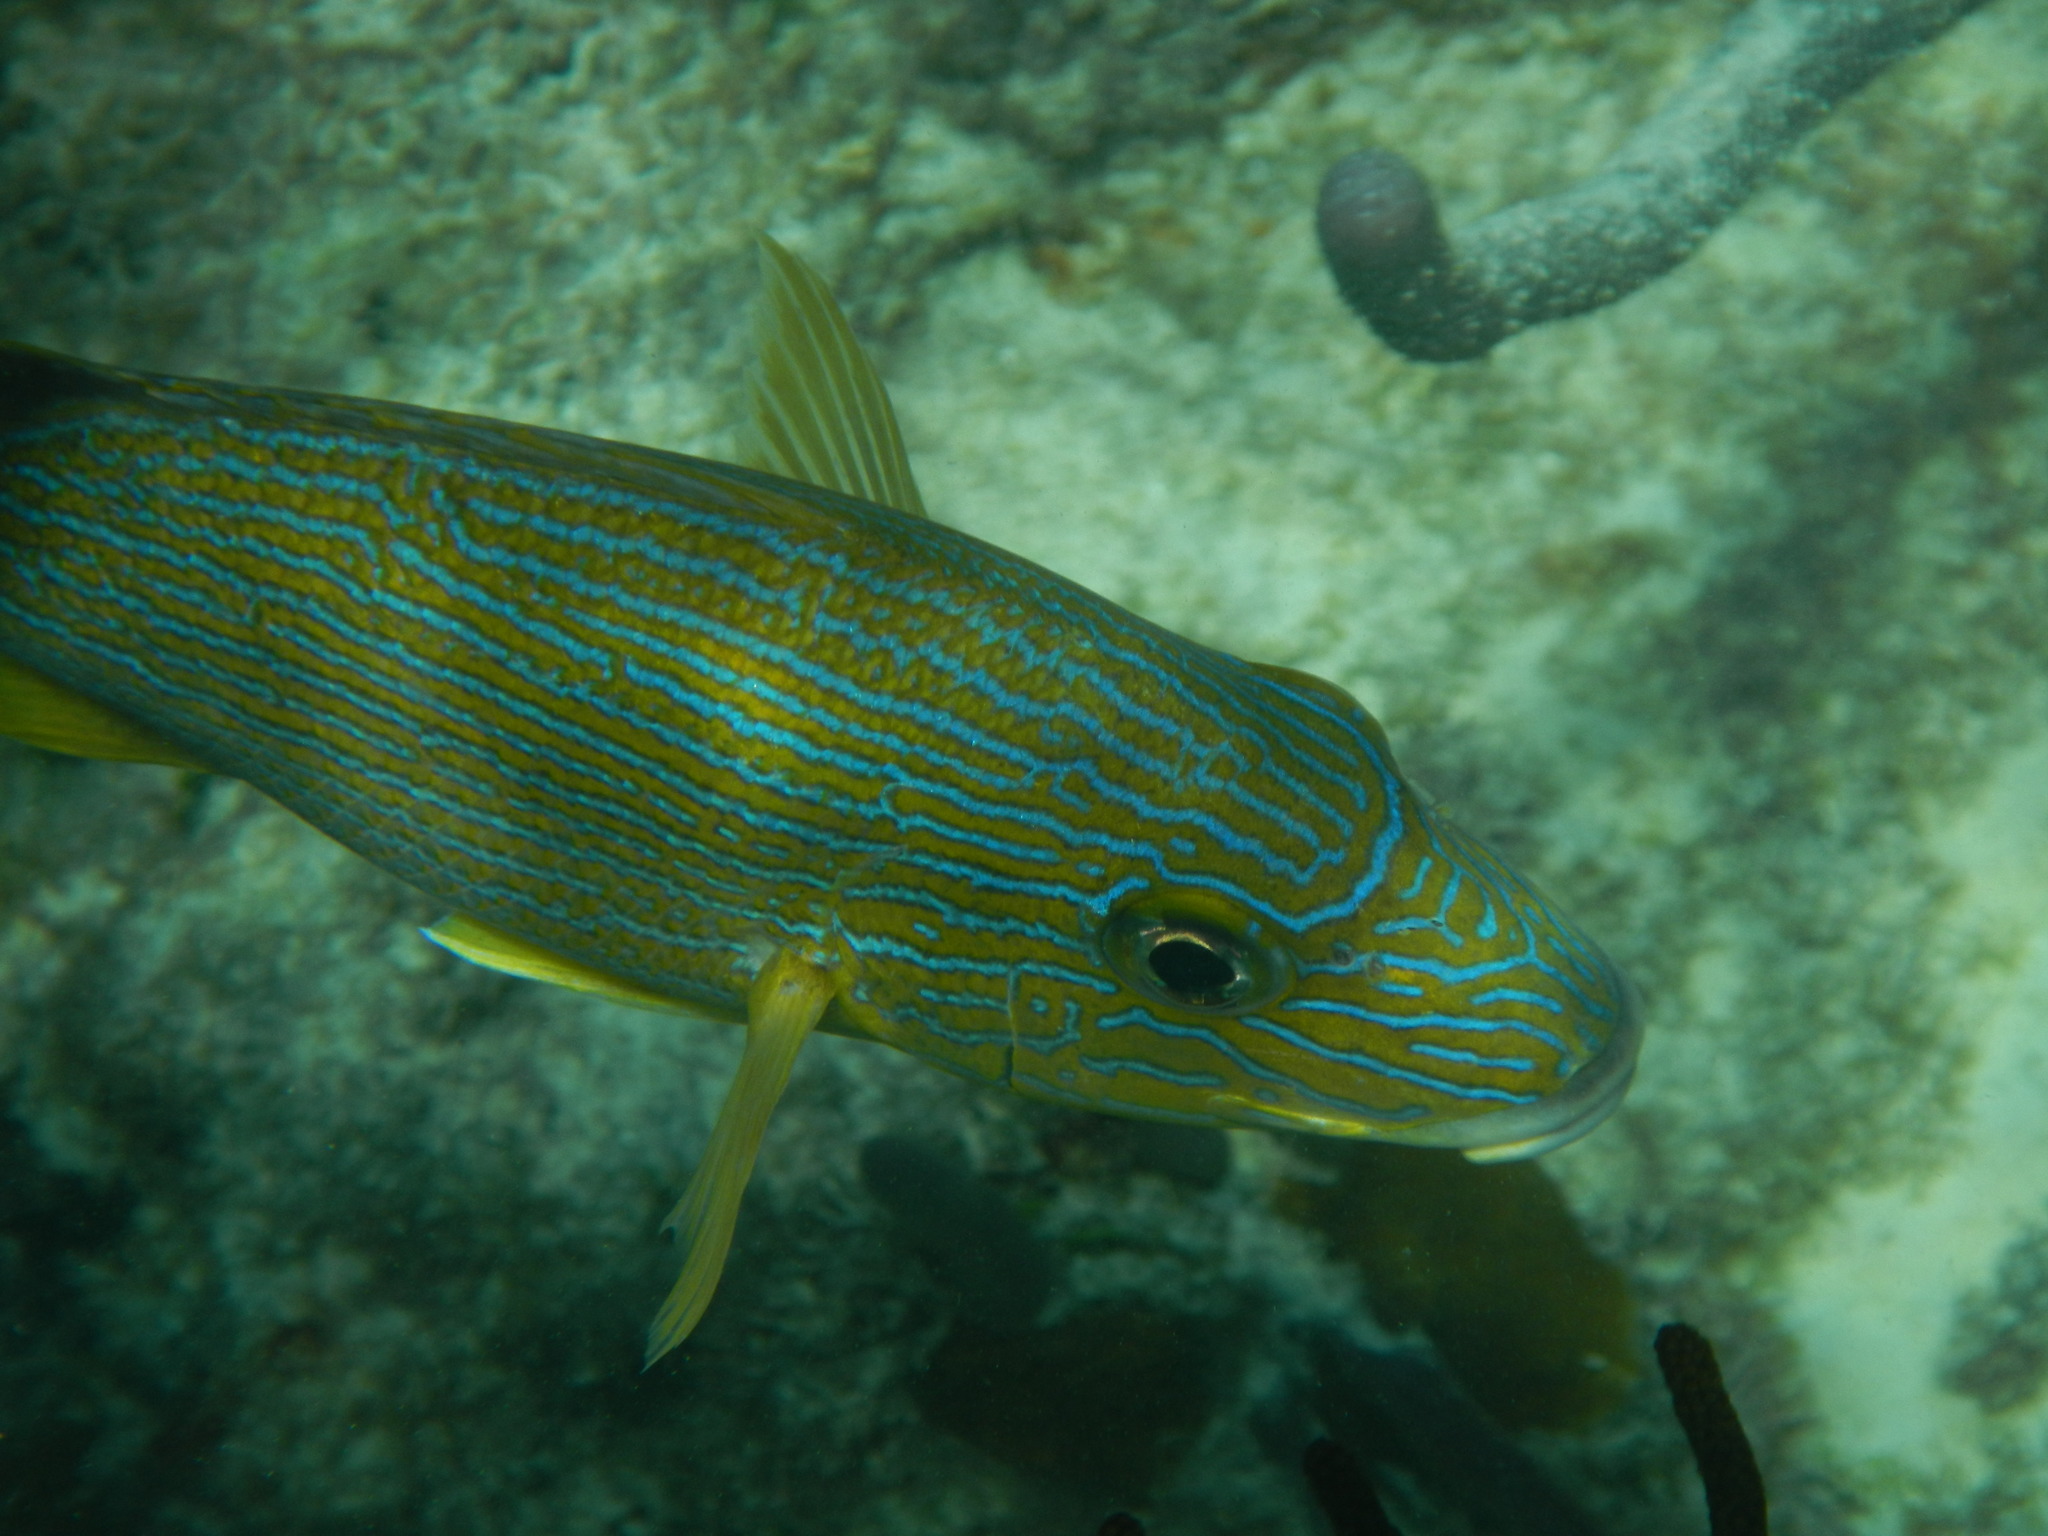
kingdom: Animalia
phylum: Chordata
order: Perciformes
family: Haemulidae
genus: Haemulon
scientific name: Haemulon sciurus
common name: Bluestriped grunt
